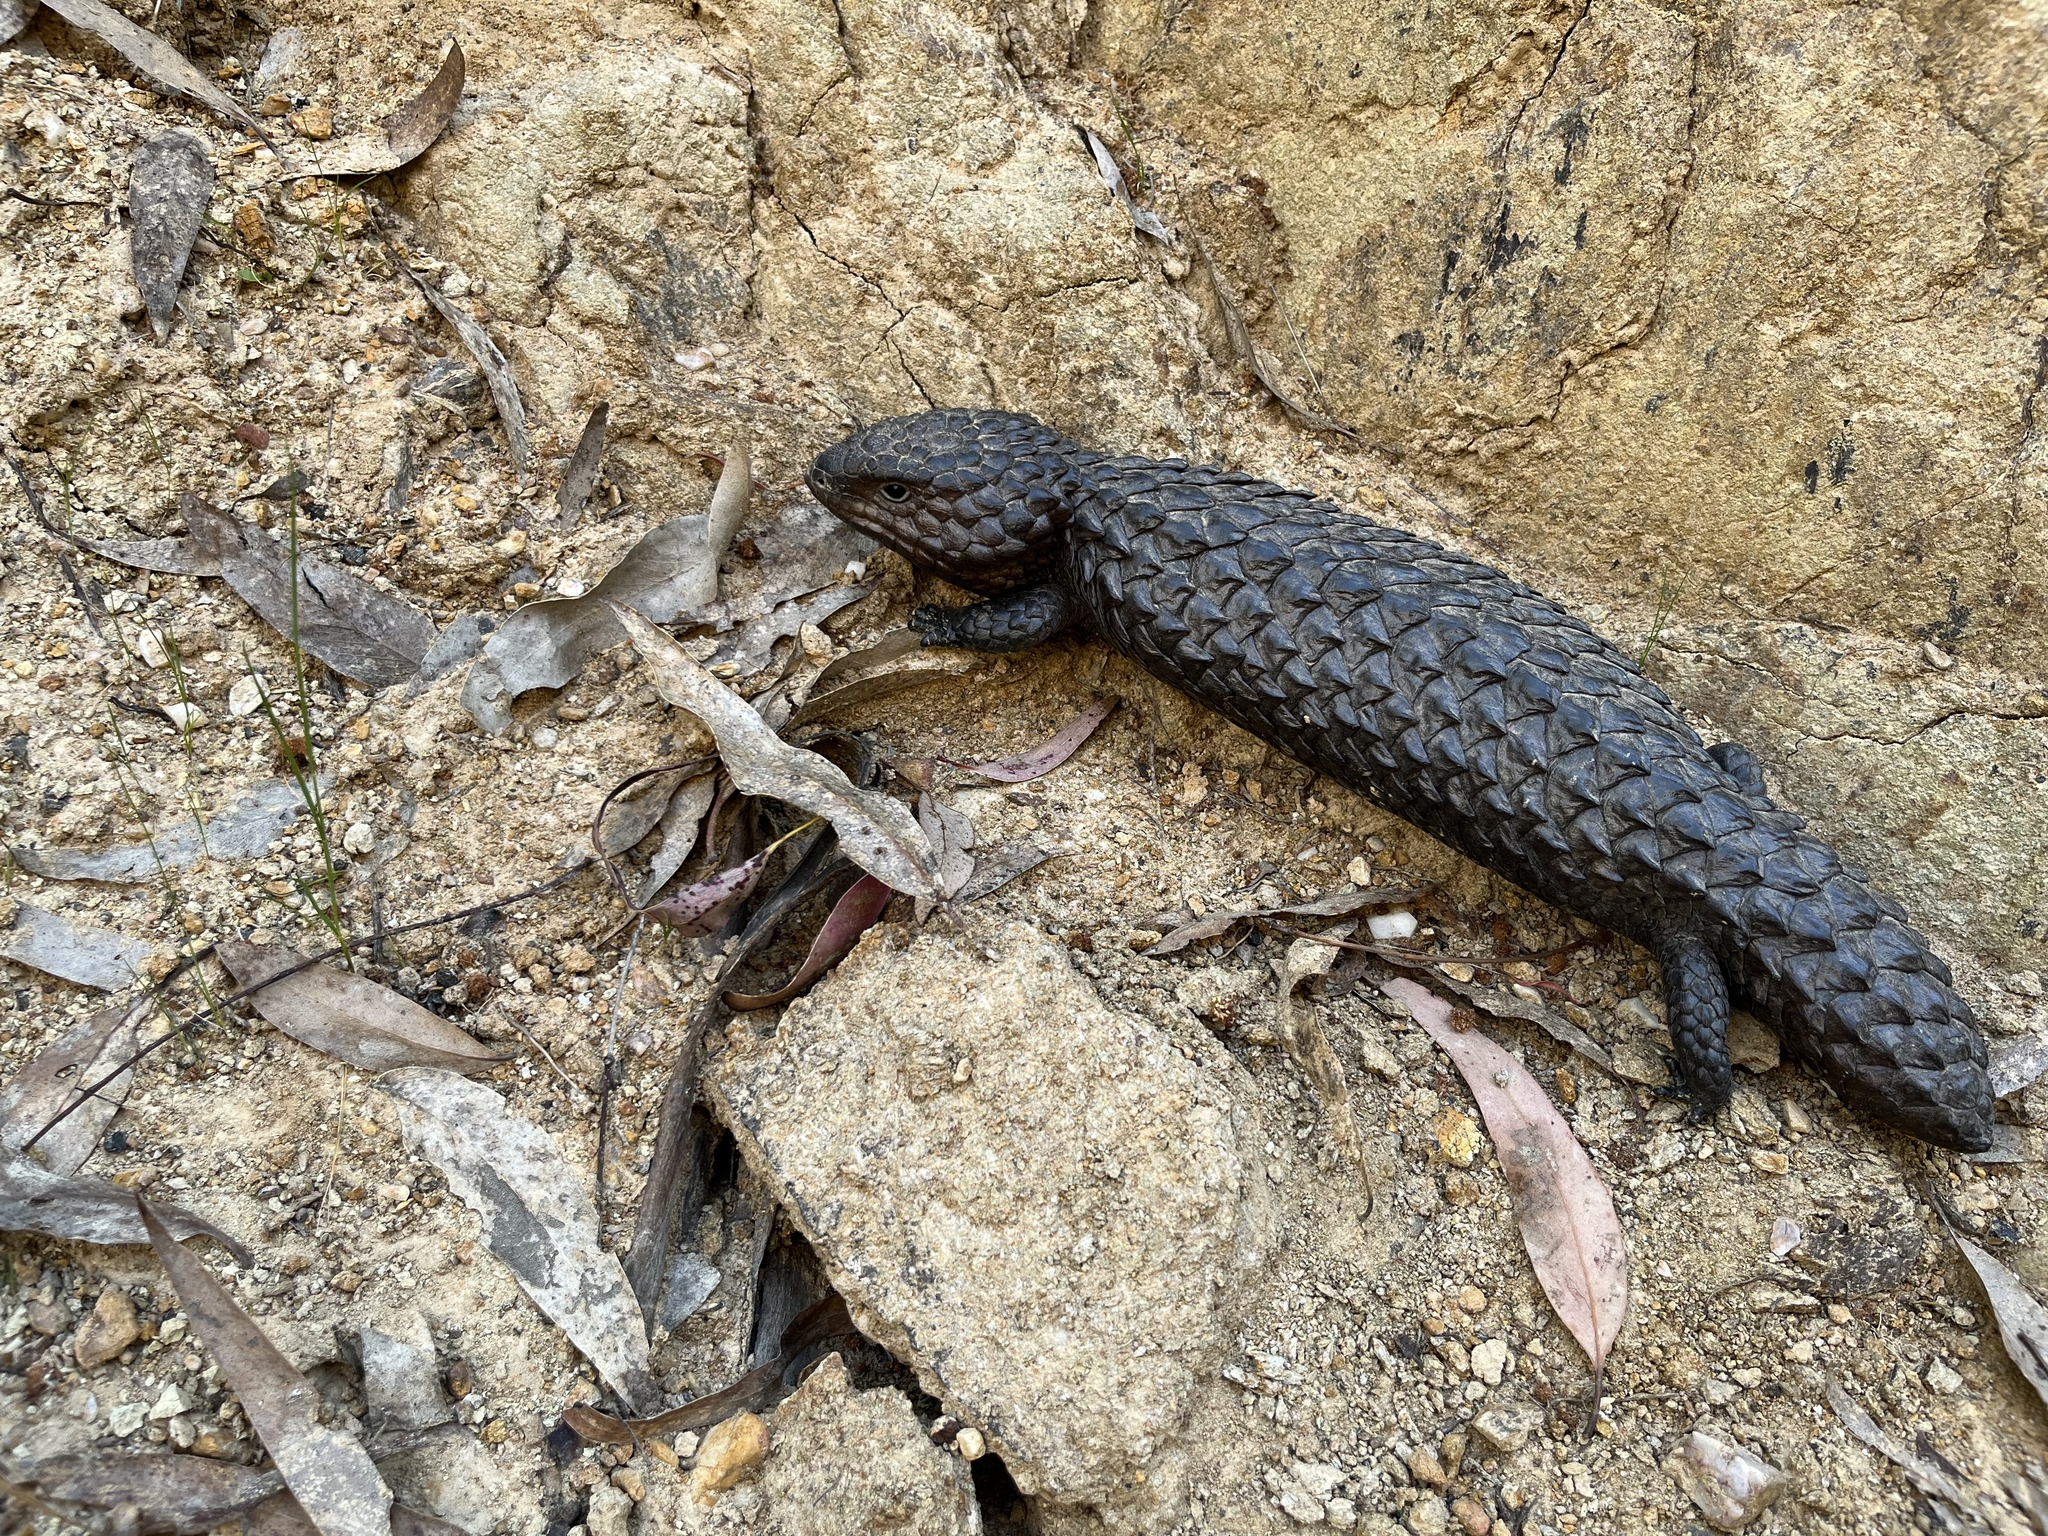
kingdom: Animalia
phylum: Chordata
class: Squamata
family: Scincidae
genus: Tiliqua
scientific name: Tiliqua rugosa
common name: Pinecone lizard
